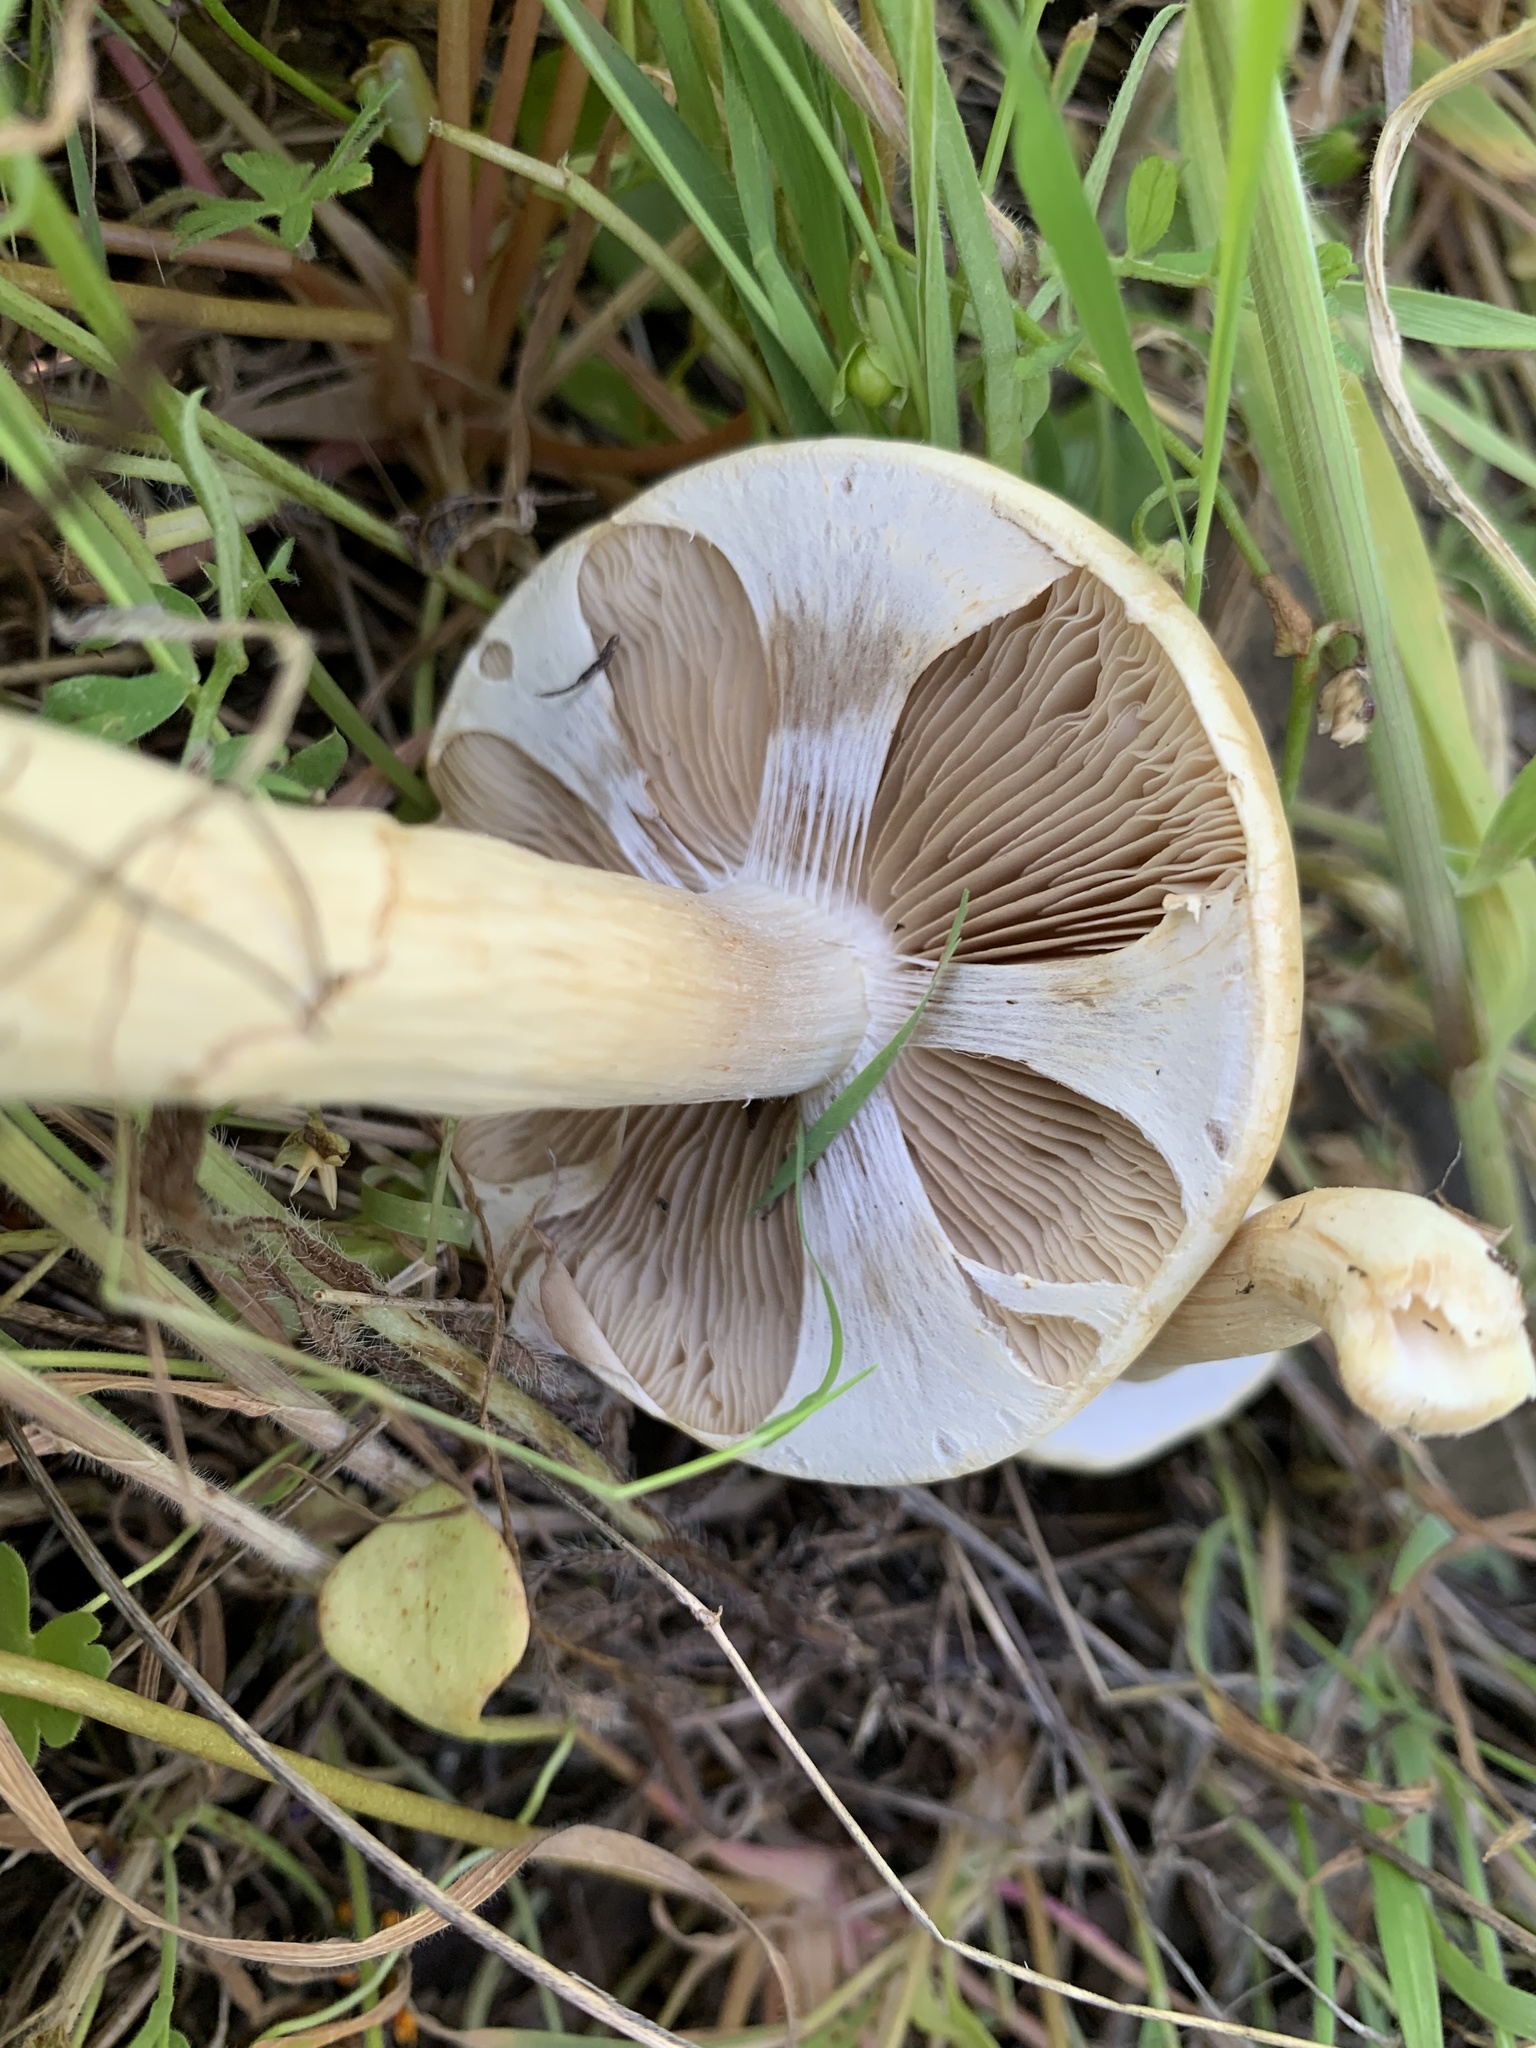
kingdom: Fungi
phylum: Basidiomycota
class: Agaricomycetes
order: Agaricales
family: Strophariaceae
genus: Agrocybe
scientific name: Agrocybe praecox
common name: Spring fieldcap
